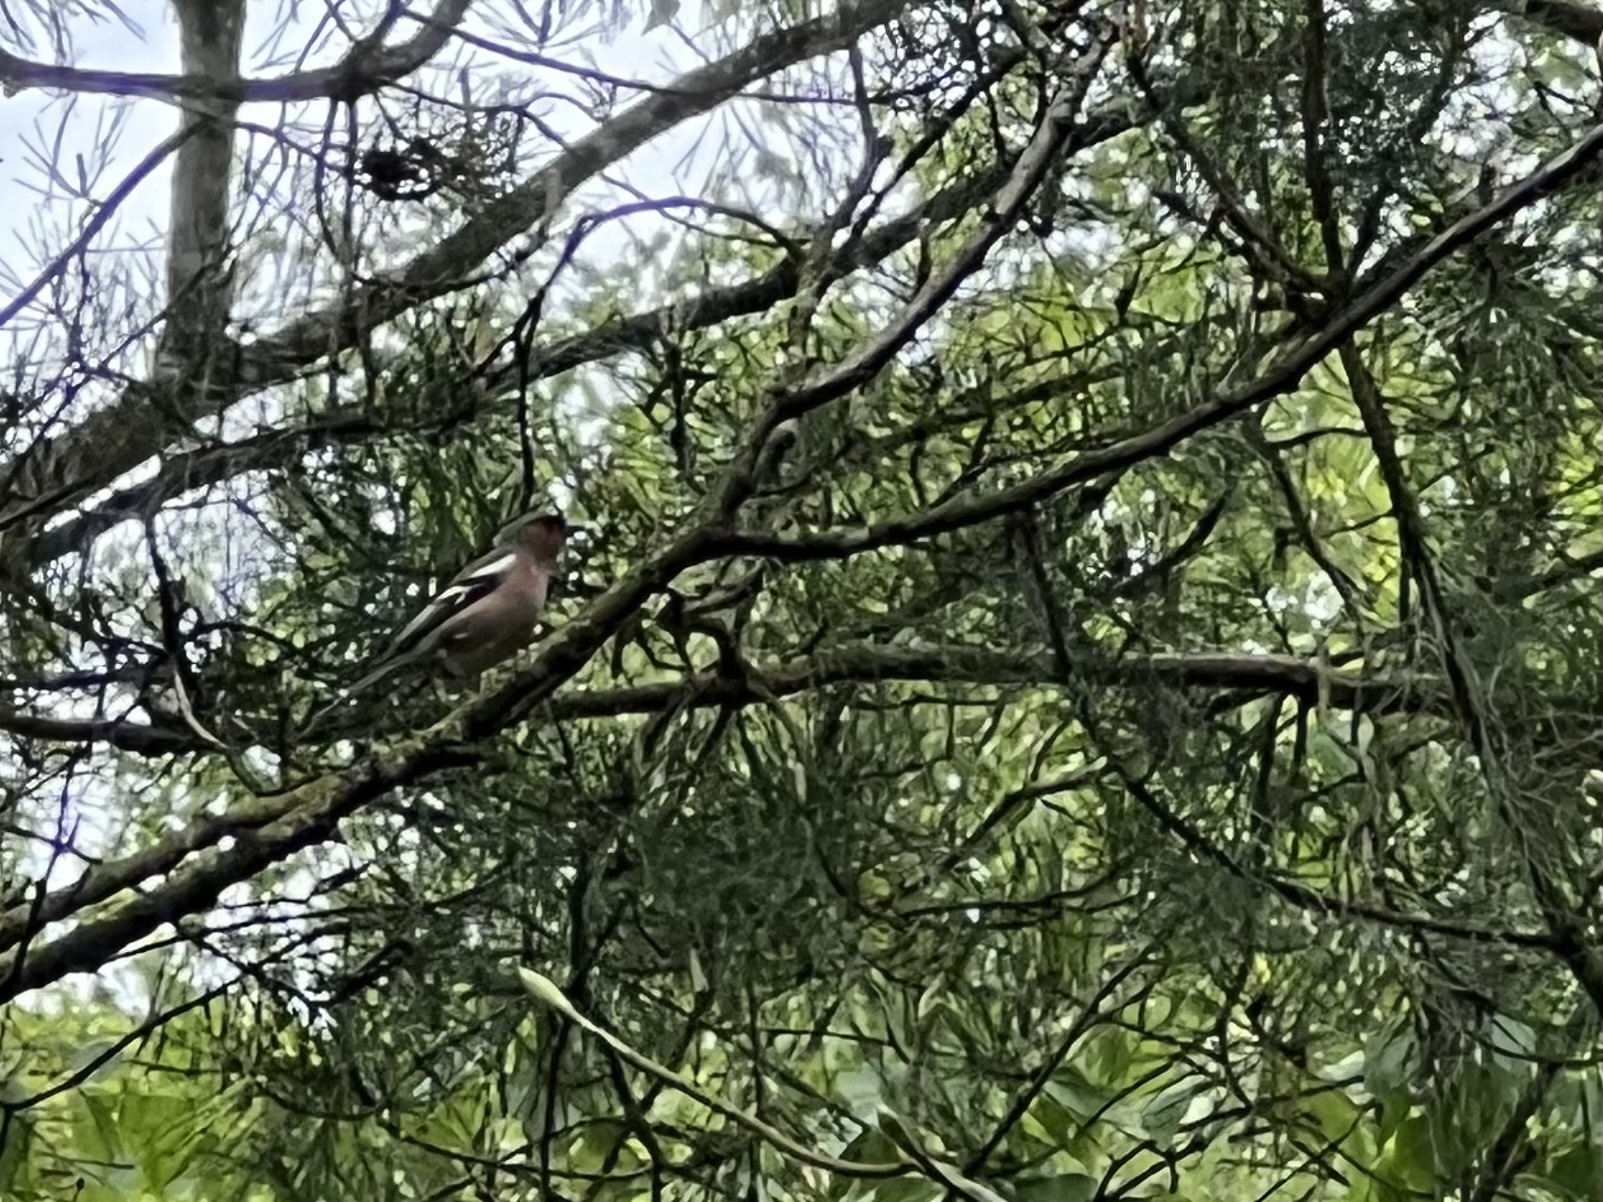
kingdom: Animalia
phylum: Chordata
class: Aves
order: Passeriformes
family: Fringillidae
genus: Fringilla
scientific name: Fringilla coelebs
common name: Common chaffinch
